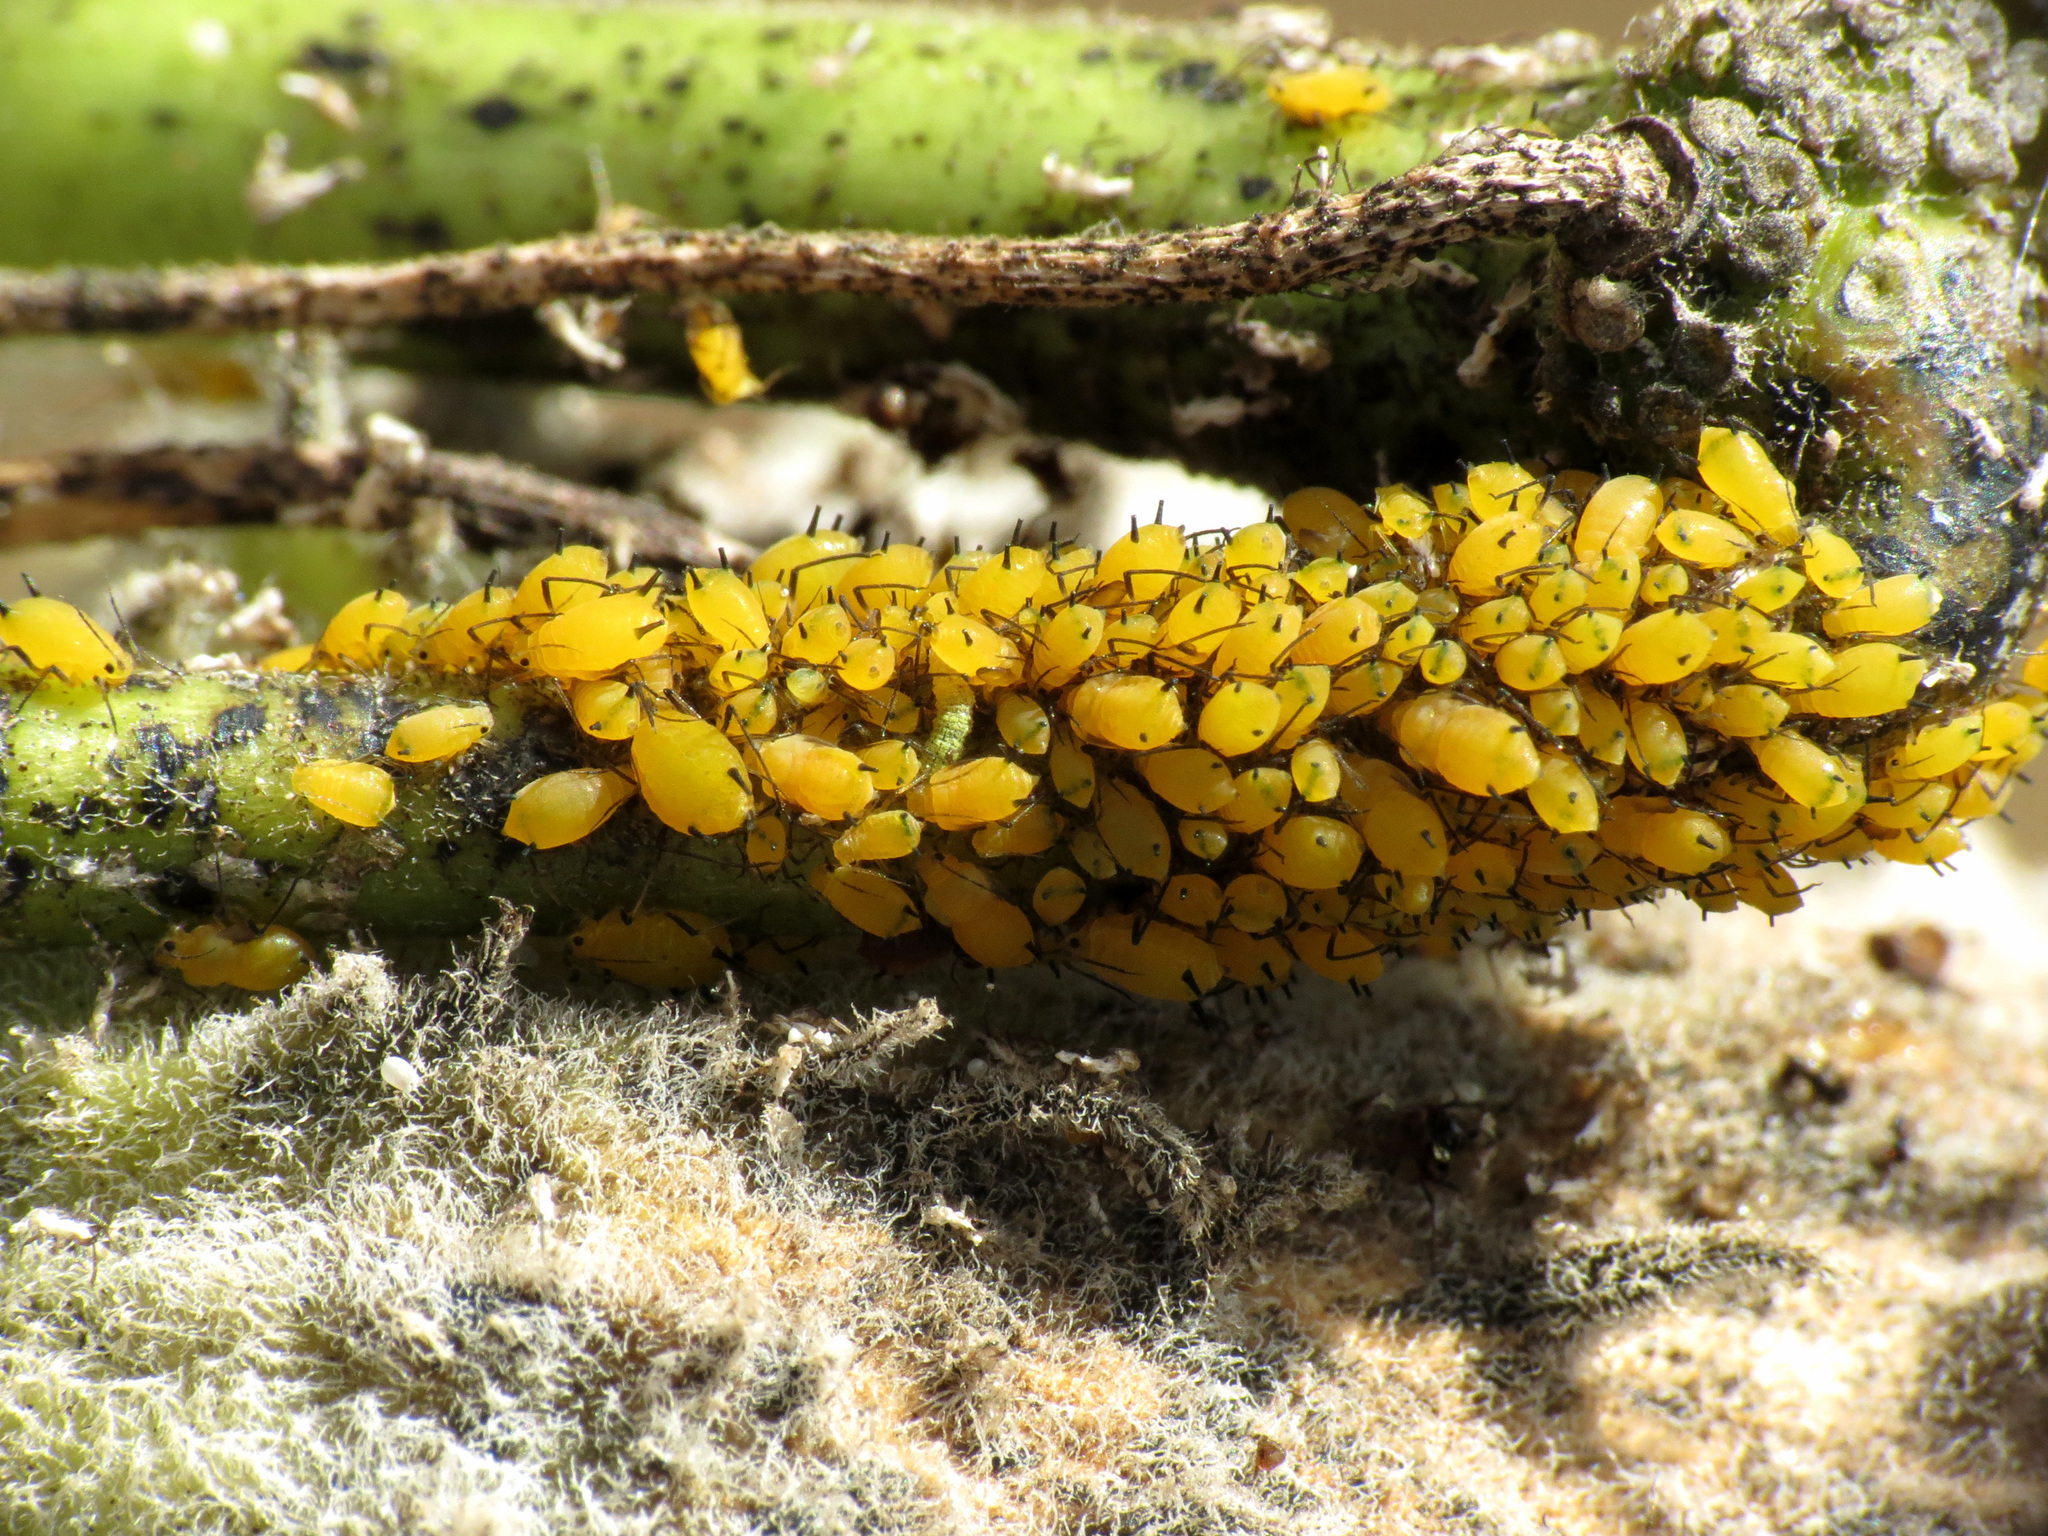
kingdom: Animalia
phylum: Arthropoda
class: Insecta
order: Hemiptera
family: Aphididae
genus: Aphis
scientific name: Aphis nerii
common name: Oleander aphid
